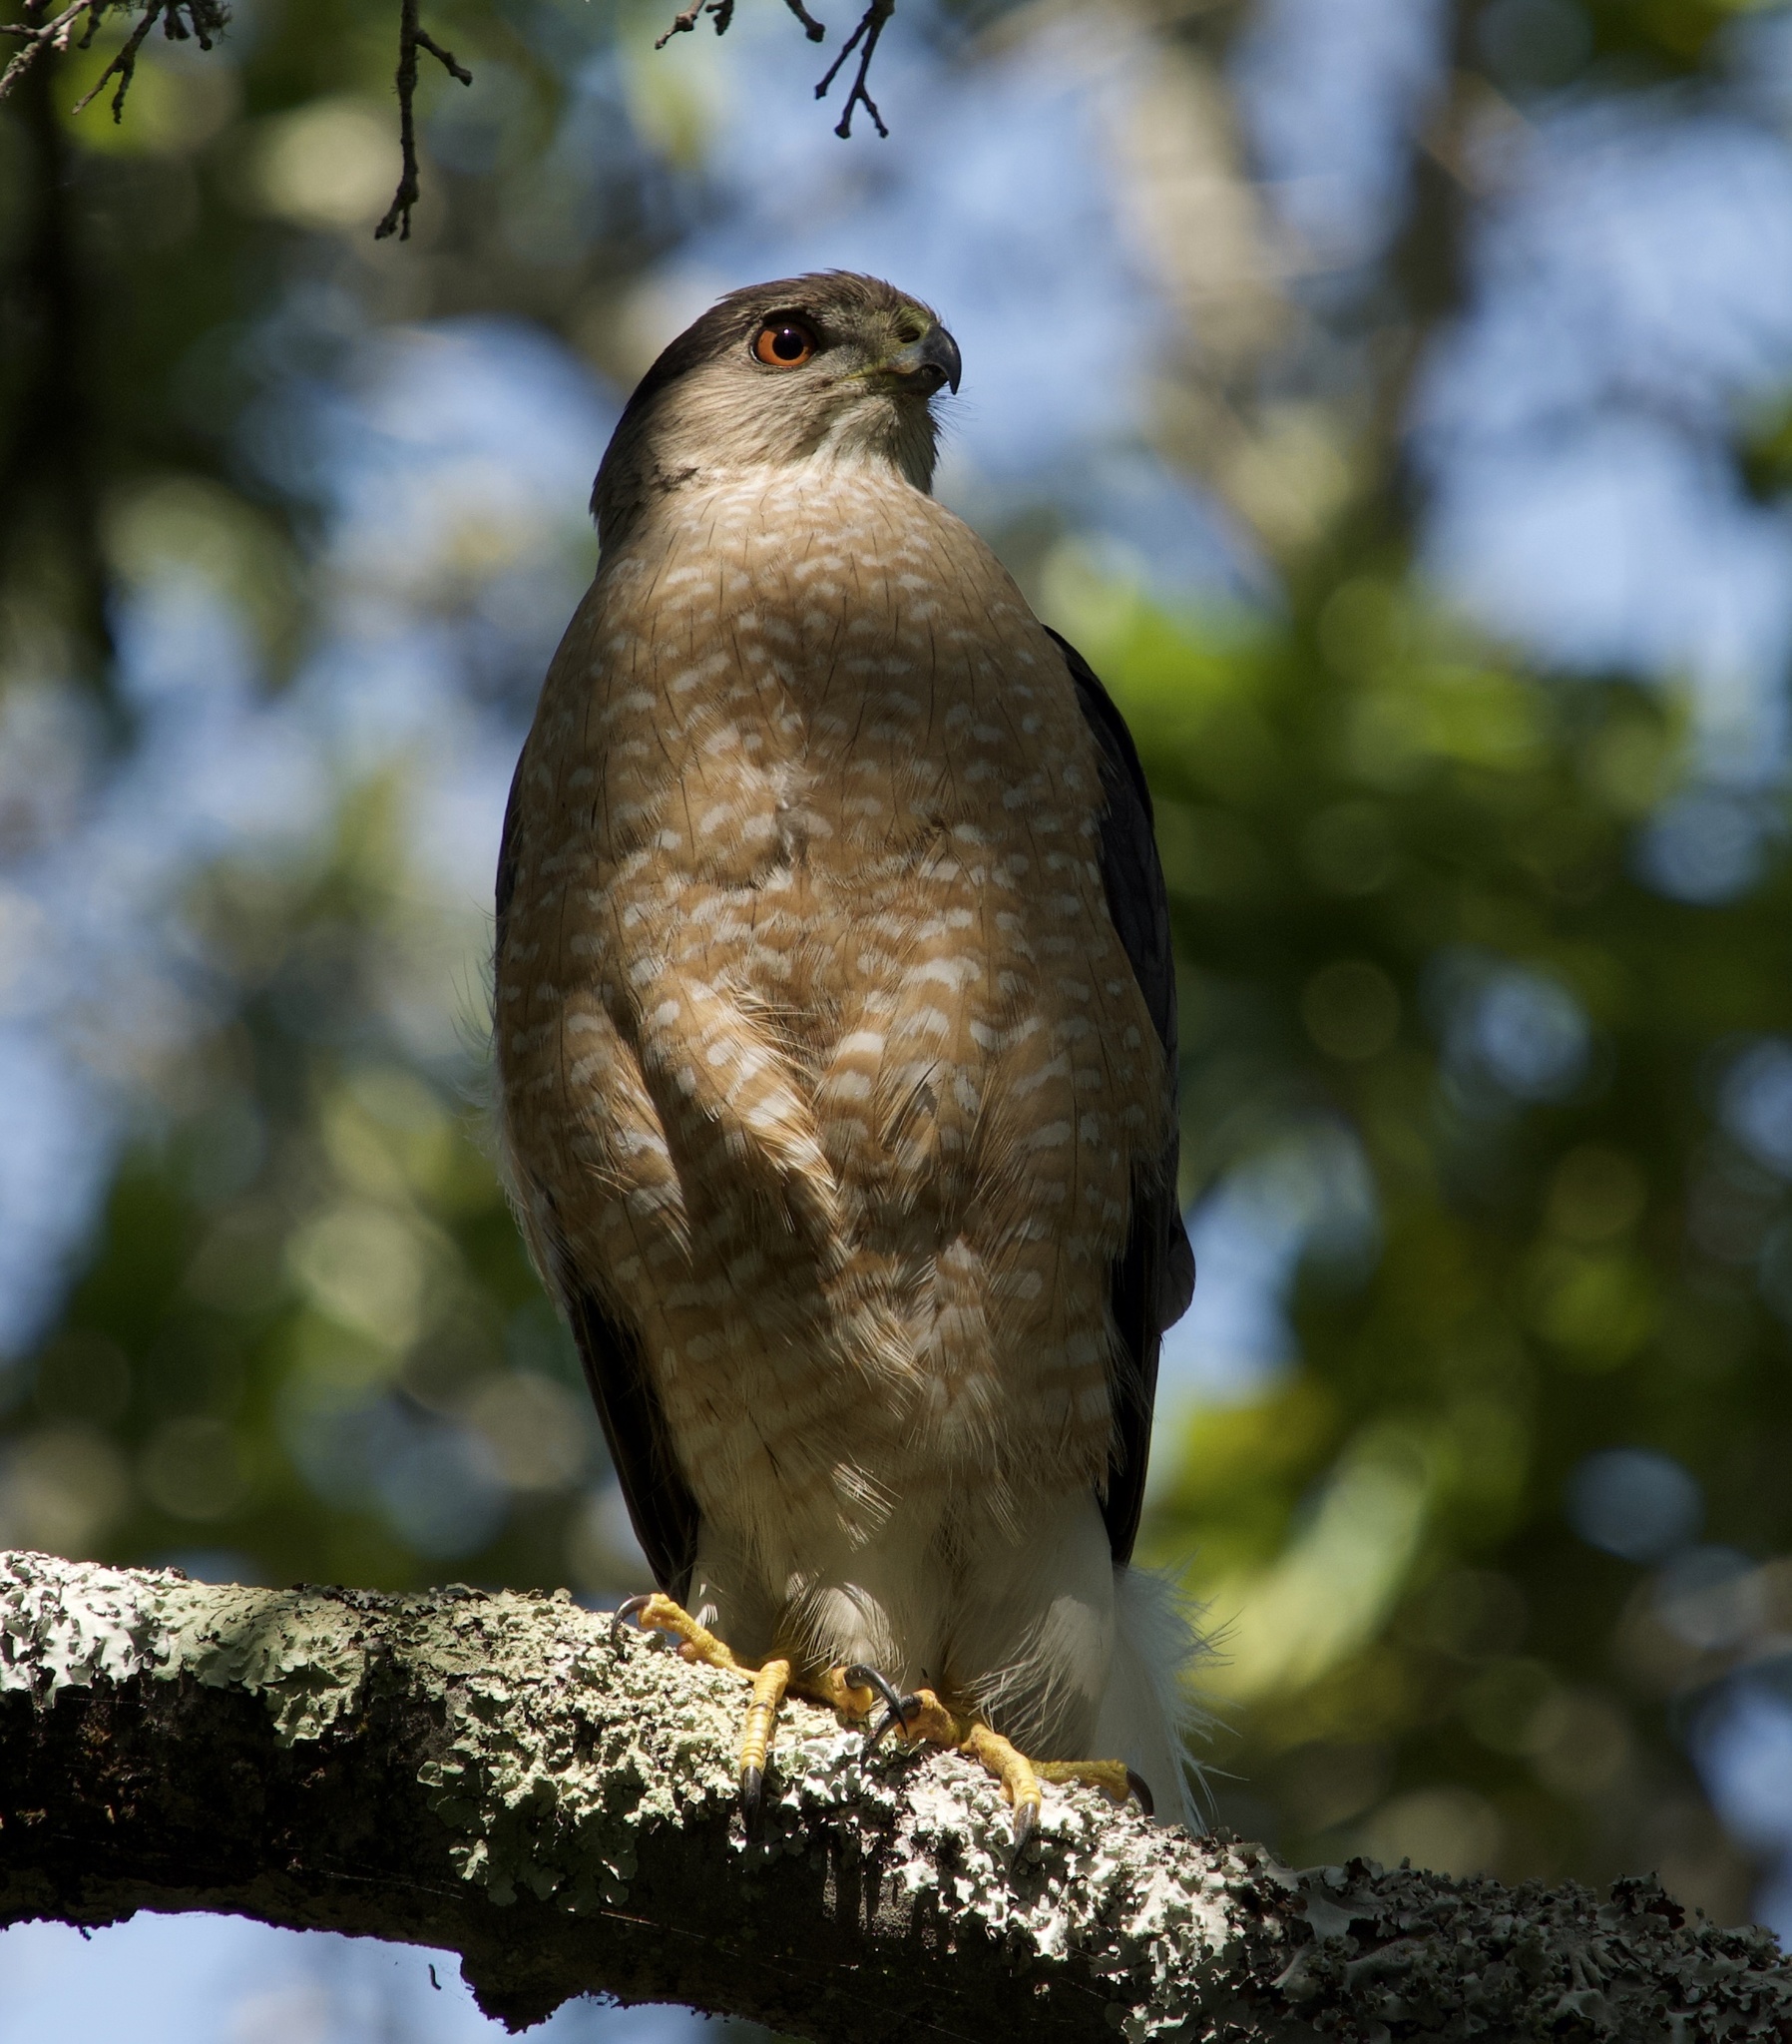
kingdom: Animalia
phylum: Chordata
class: Aves
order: Accipitriformes
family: Accipitridae
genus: Accipiter
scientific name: Accipiter cooperii
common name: Cooper's hawk
